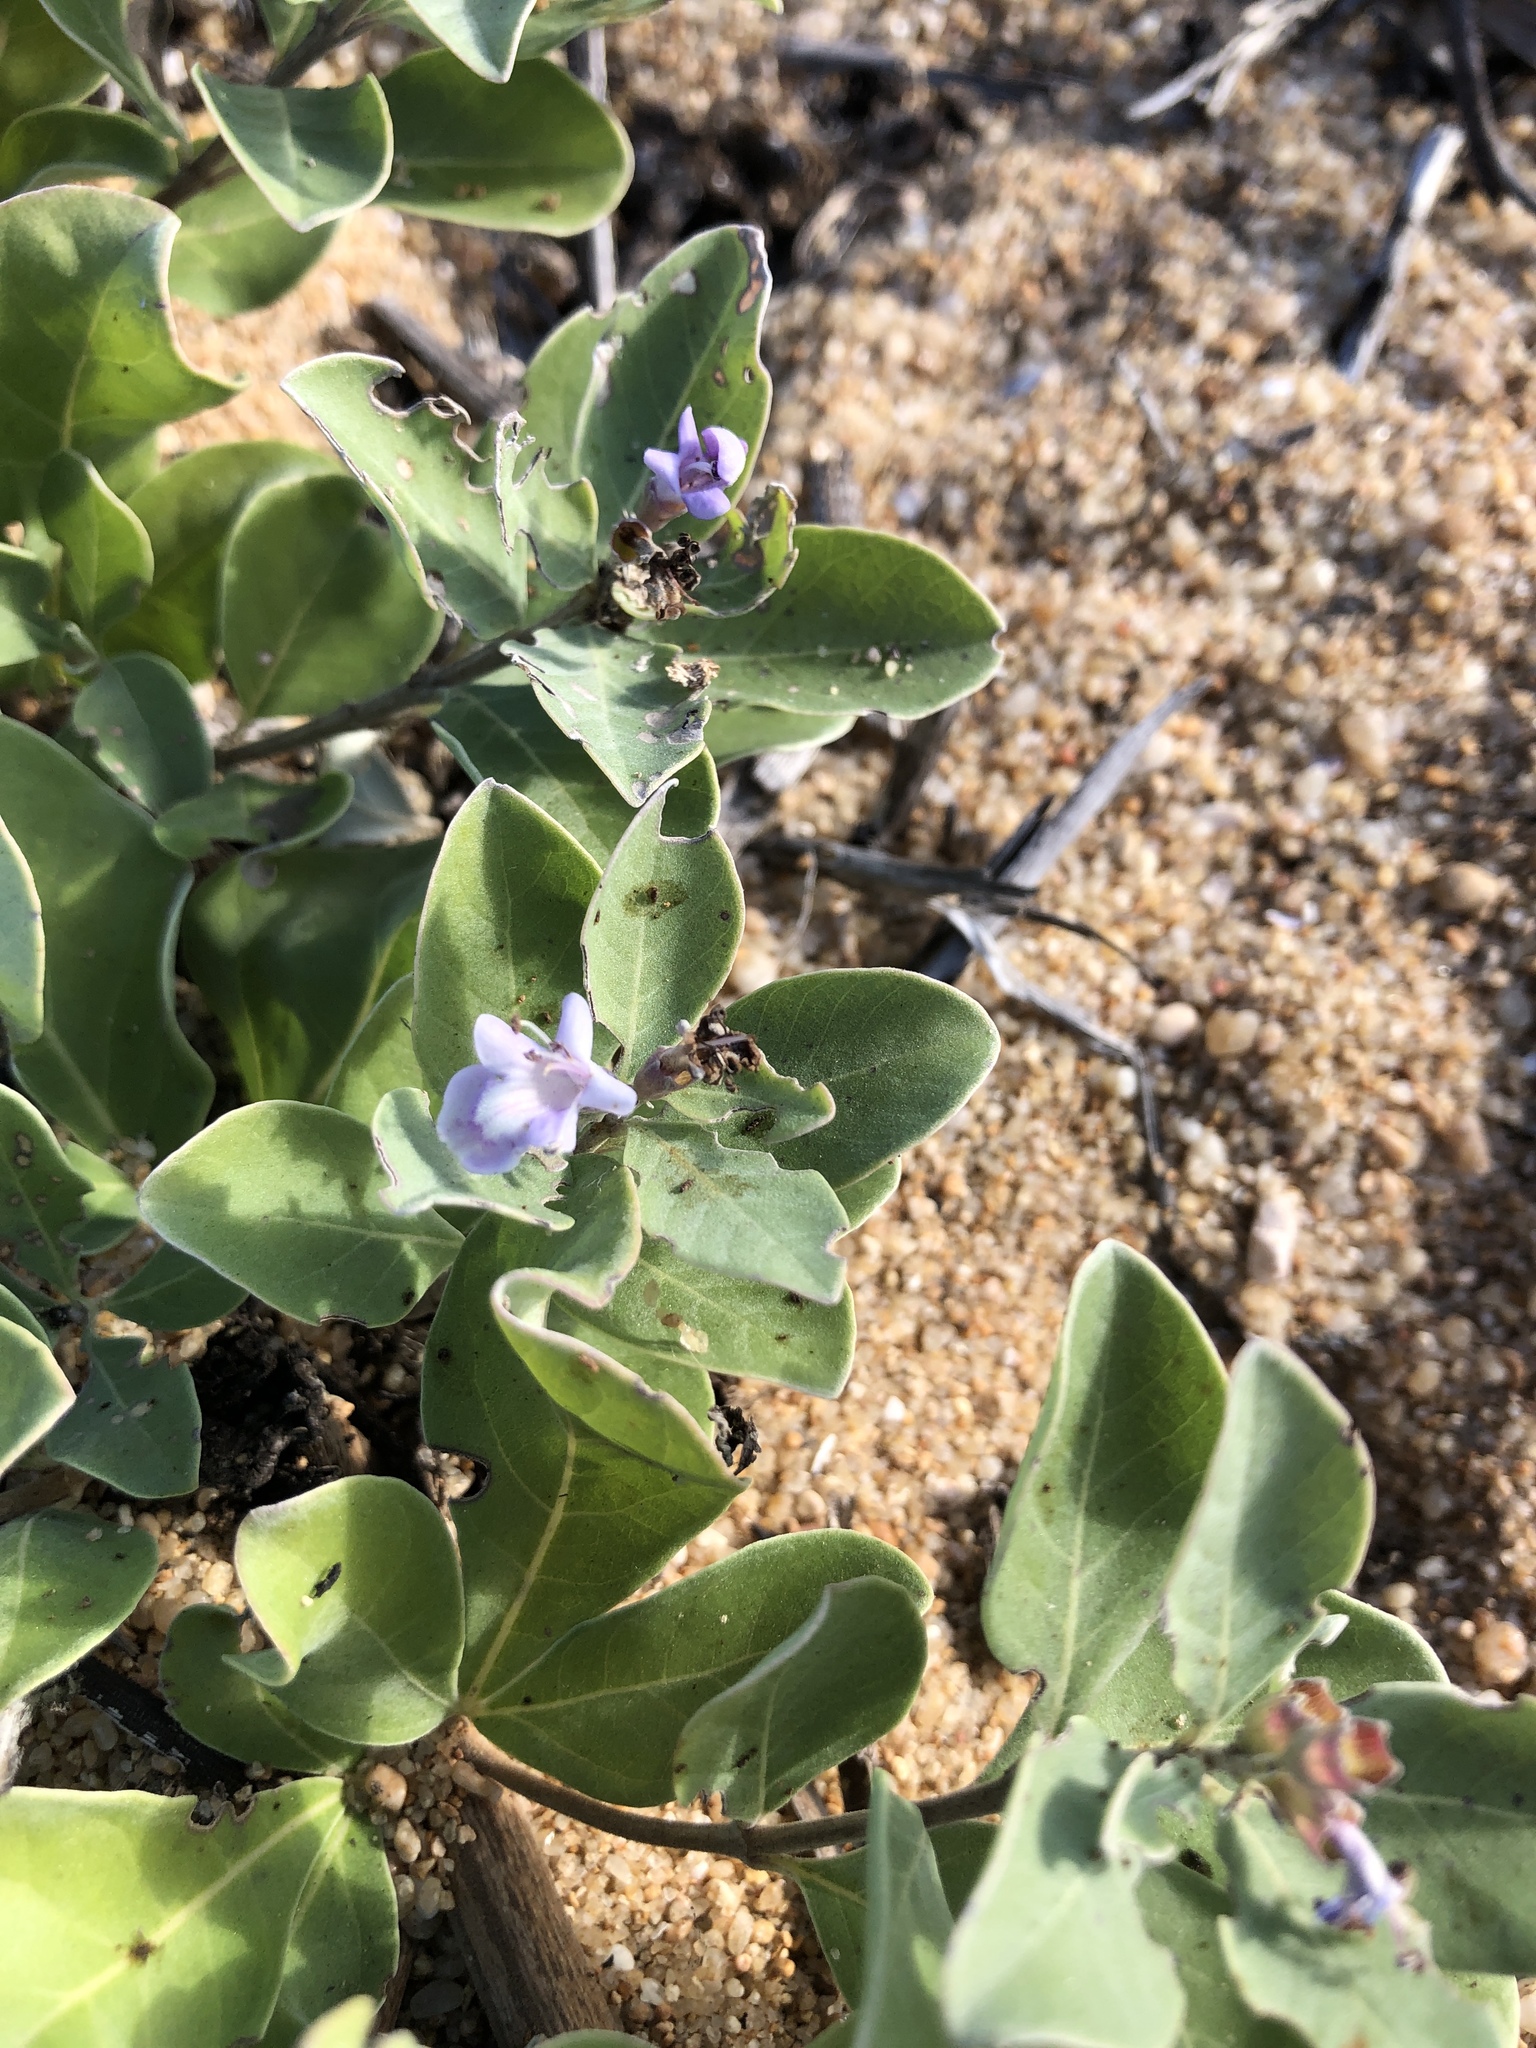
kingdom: Plantae
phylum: Tracheophyta
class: Magnoliopsida
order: Lamiales
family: Lamiaceae
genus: Vitex
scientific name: Vitex rotundifolia
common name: Beach vitex
